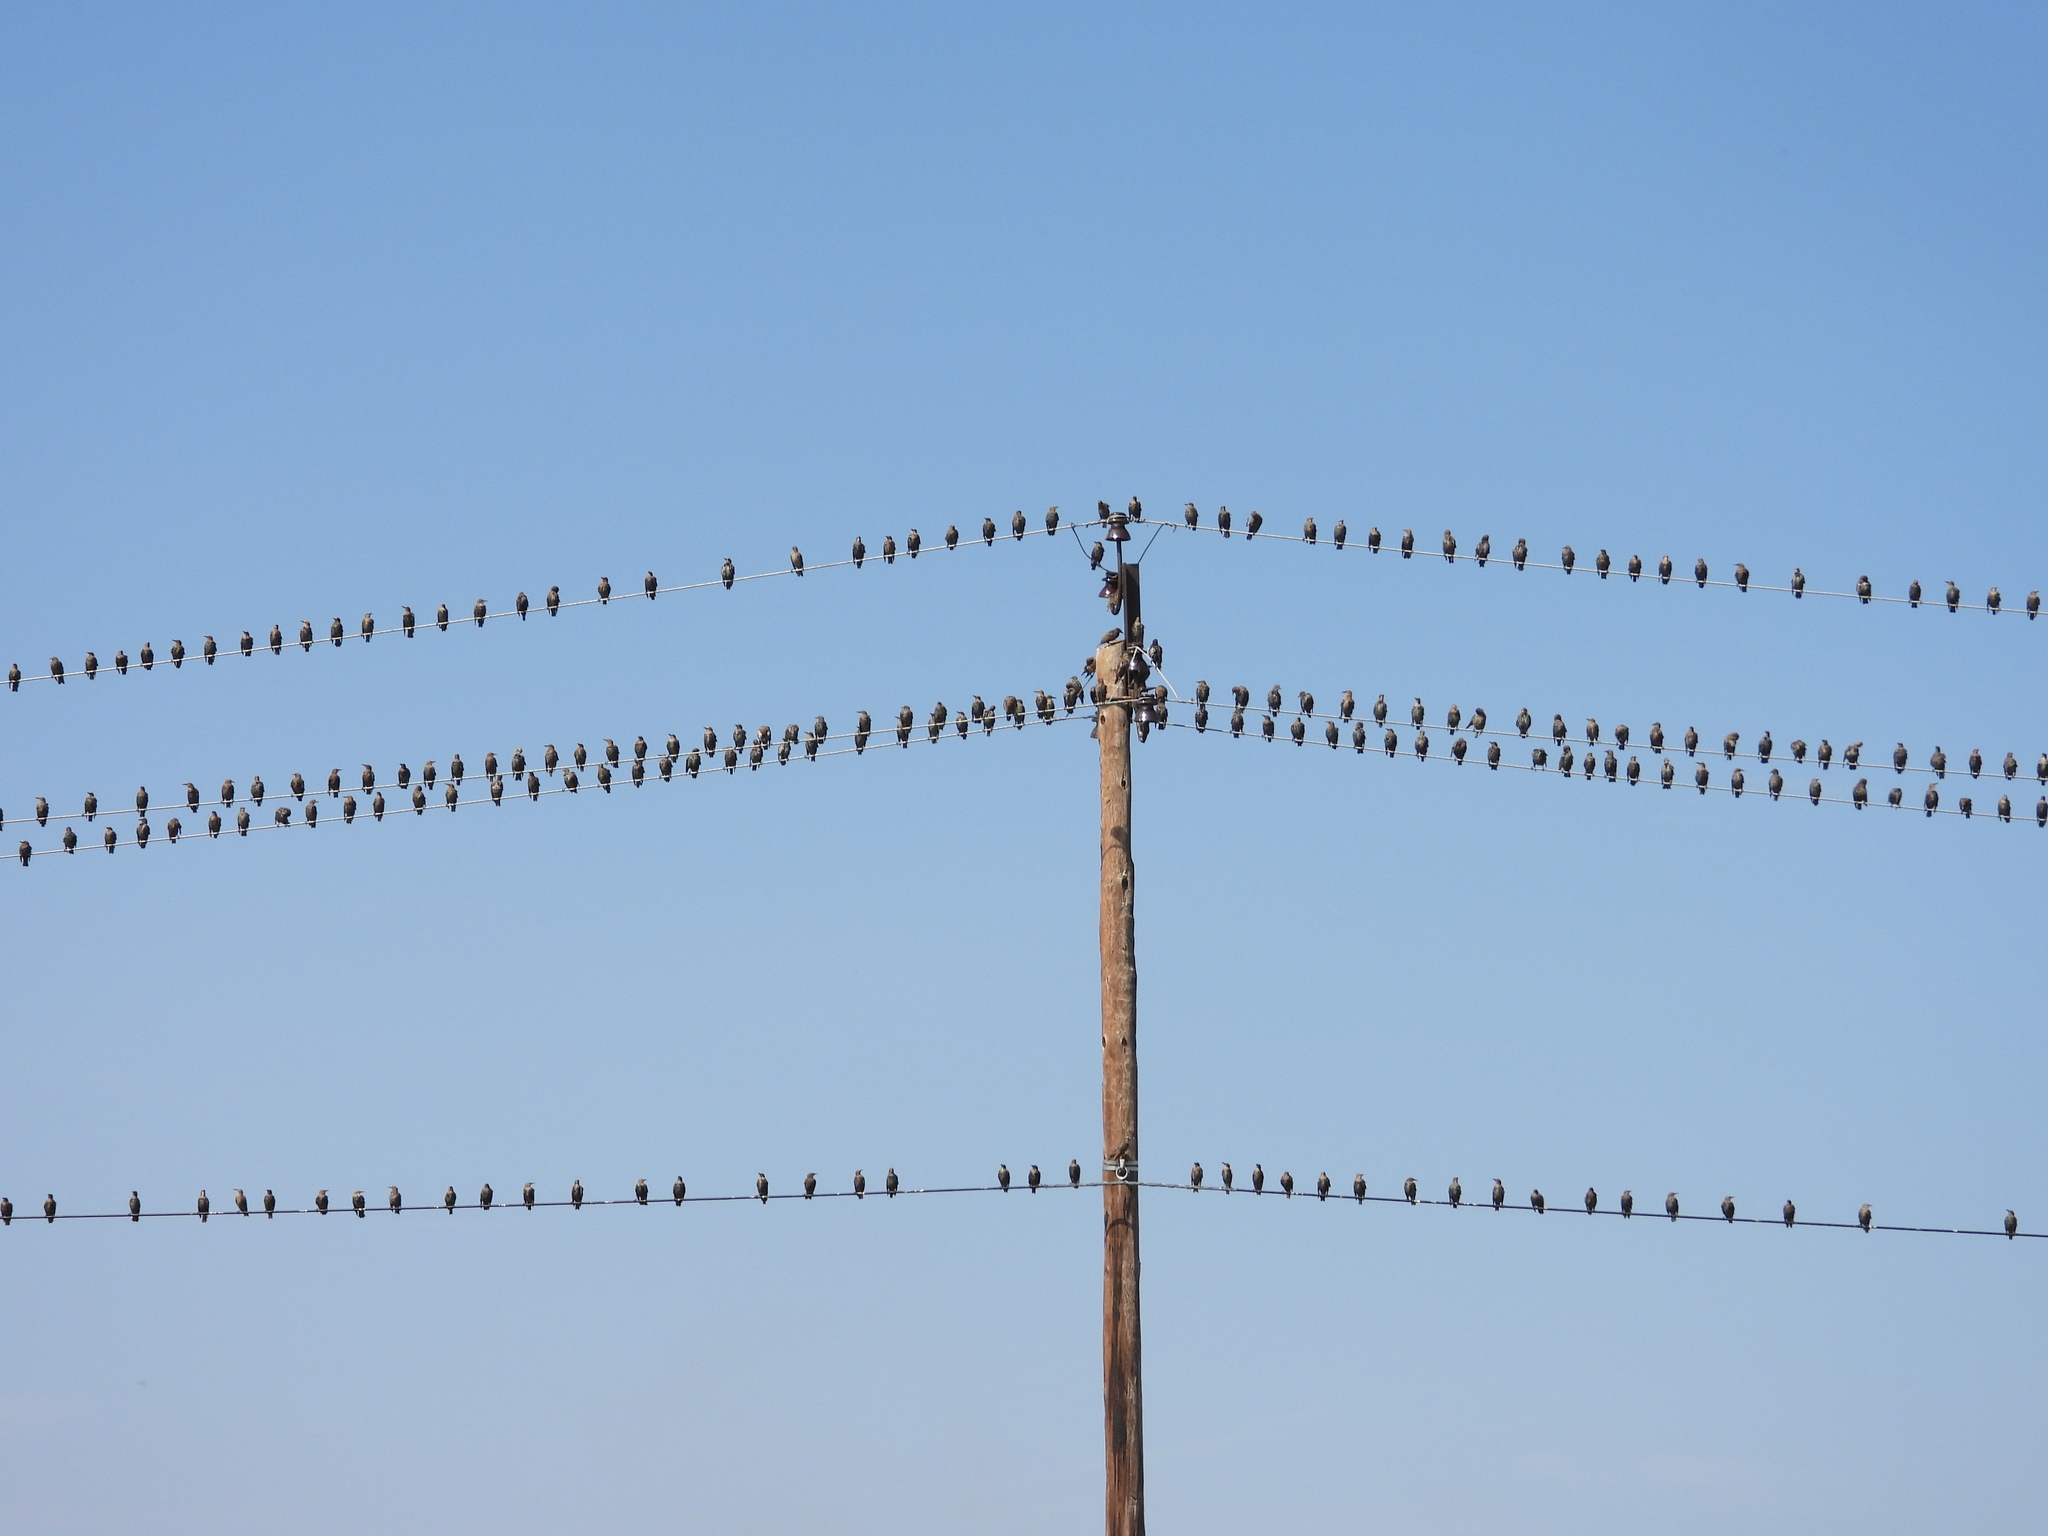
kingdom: Animalia
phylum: Chordata
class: Aves
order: Passeriformes
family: Sturnidae
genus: Sturnus
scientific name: Sturnus vulgaris
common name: Common starling
